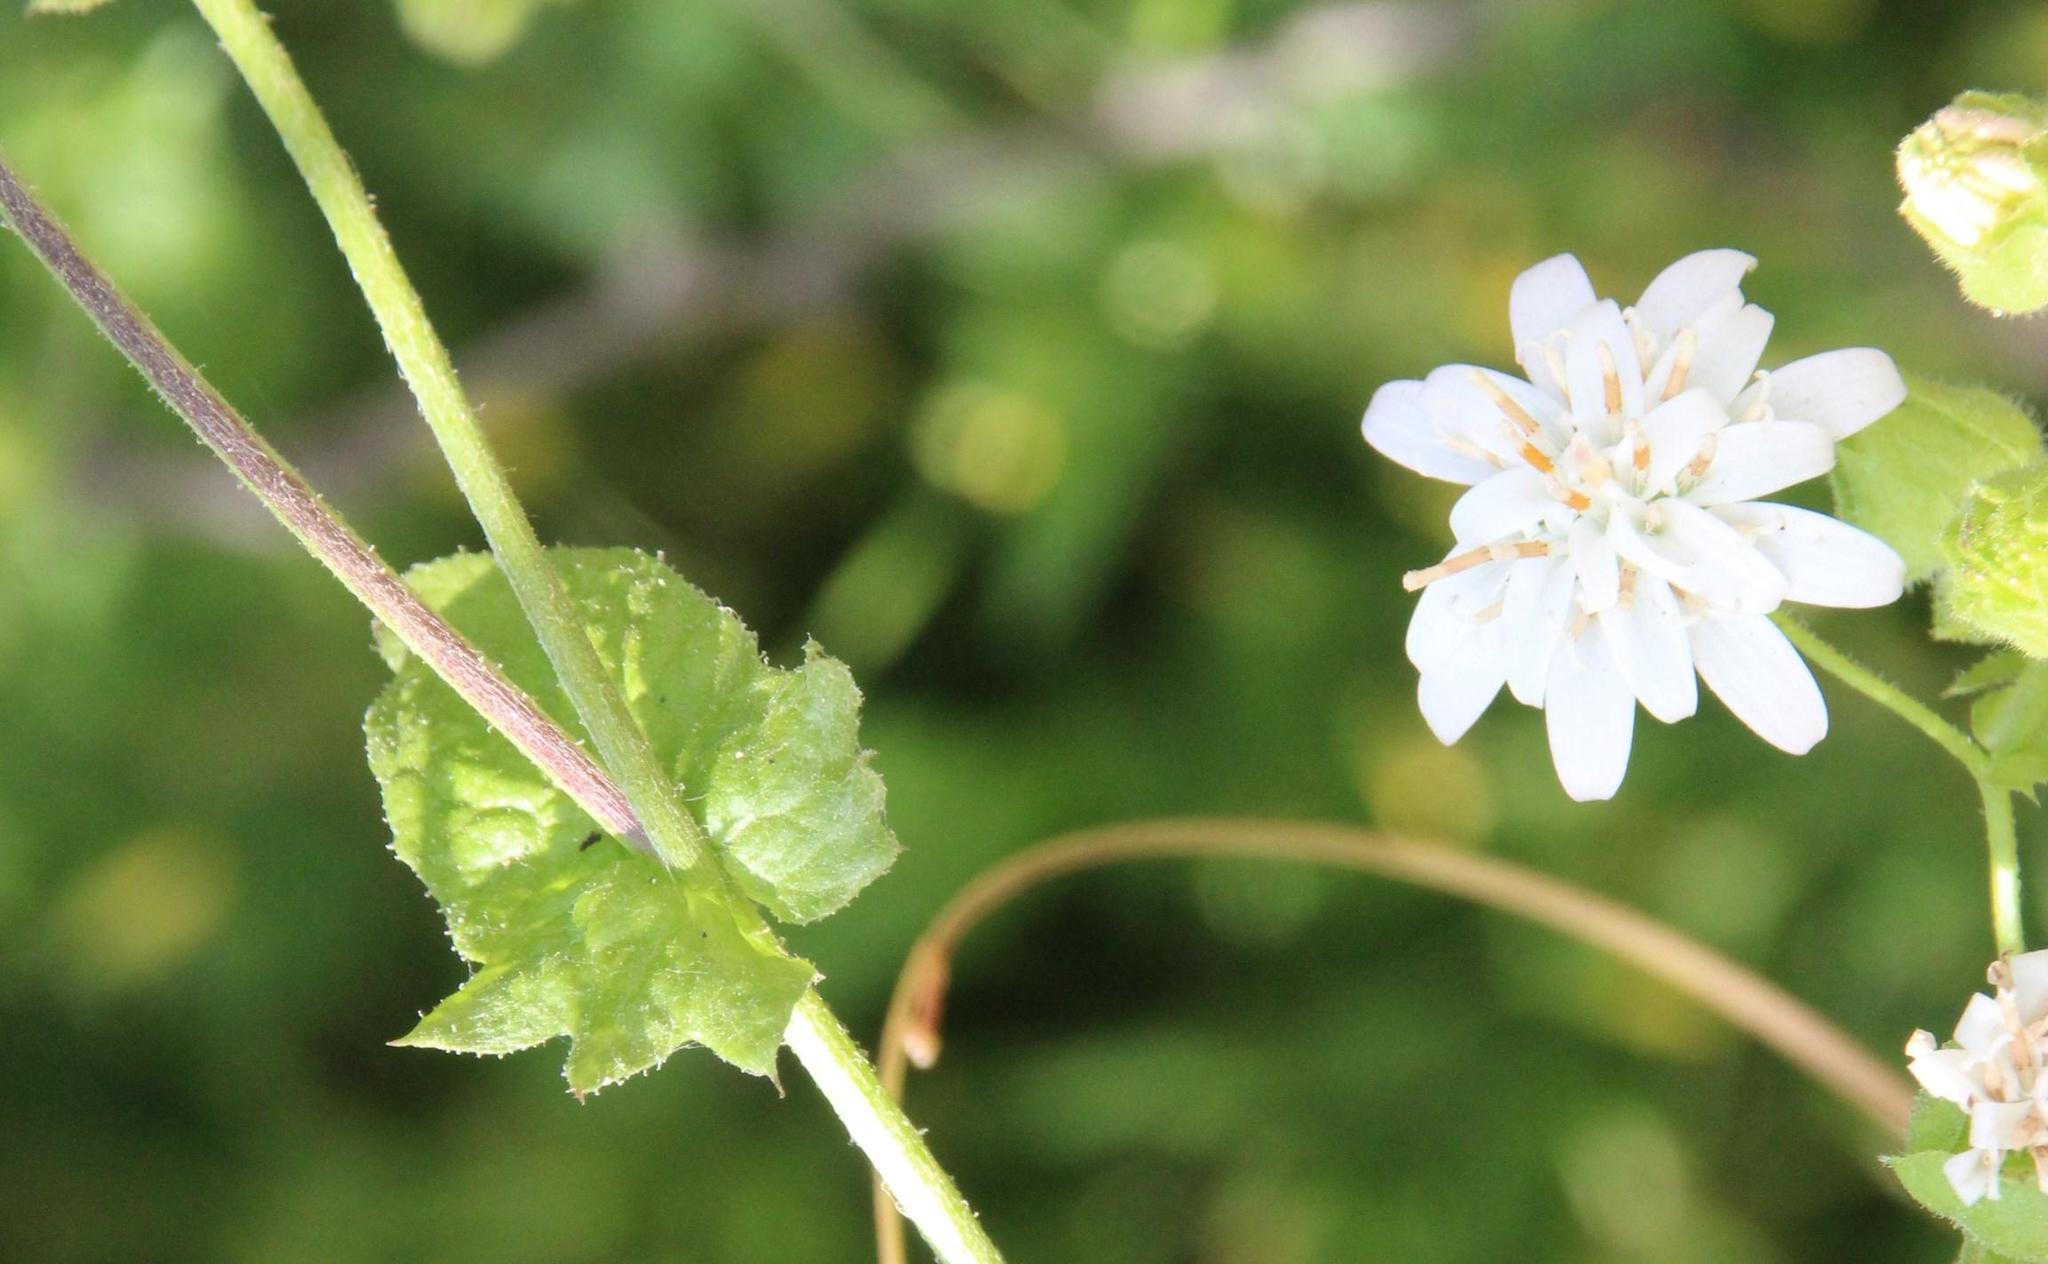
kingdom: Plantae
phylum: Tracheophyta
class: Magnoliopsida
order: Asterales
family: Asteraceae
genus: Moscharia
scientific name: Moscharia pinnatifida
